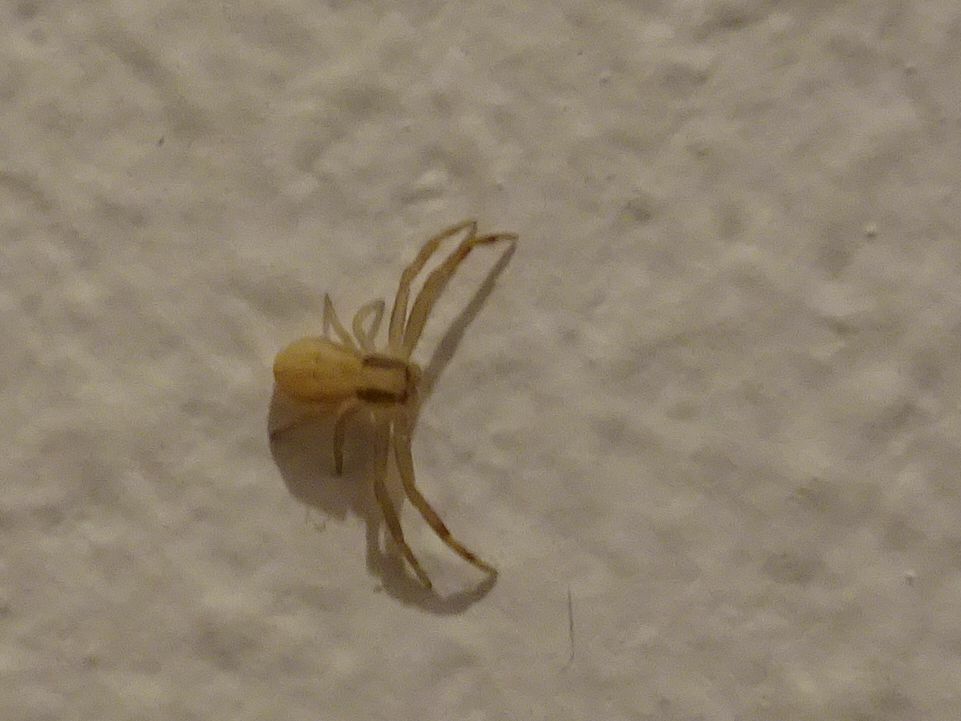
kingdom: Animalia
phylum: Arthropoda
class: Arachnida
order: Araneae
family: Thomisidae
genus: Runcinia
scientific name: Runcinia grammica
